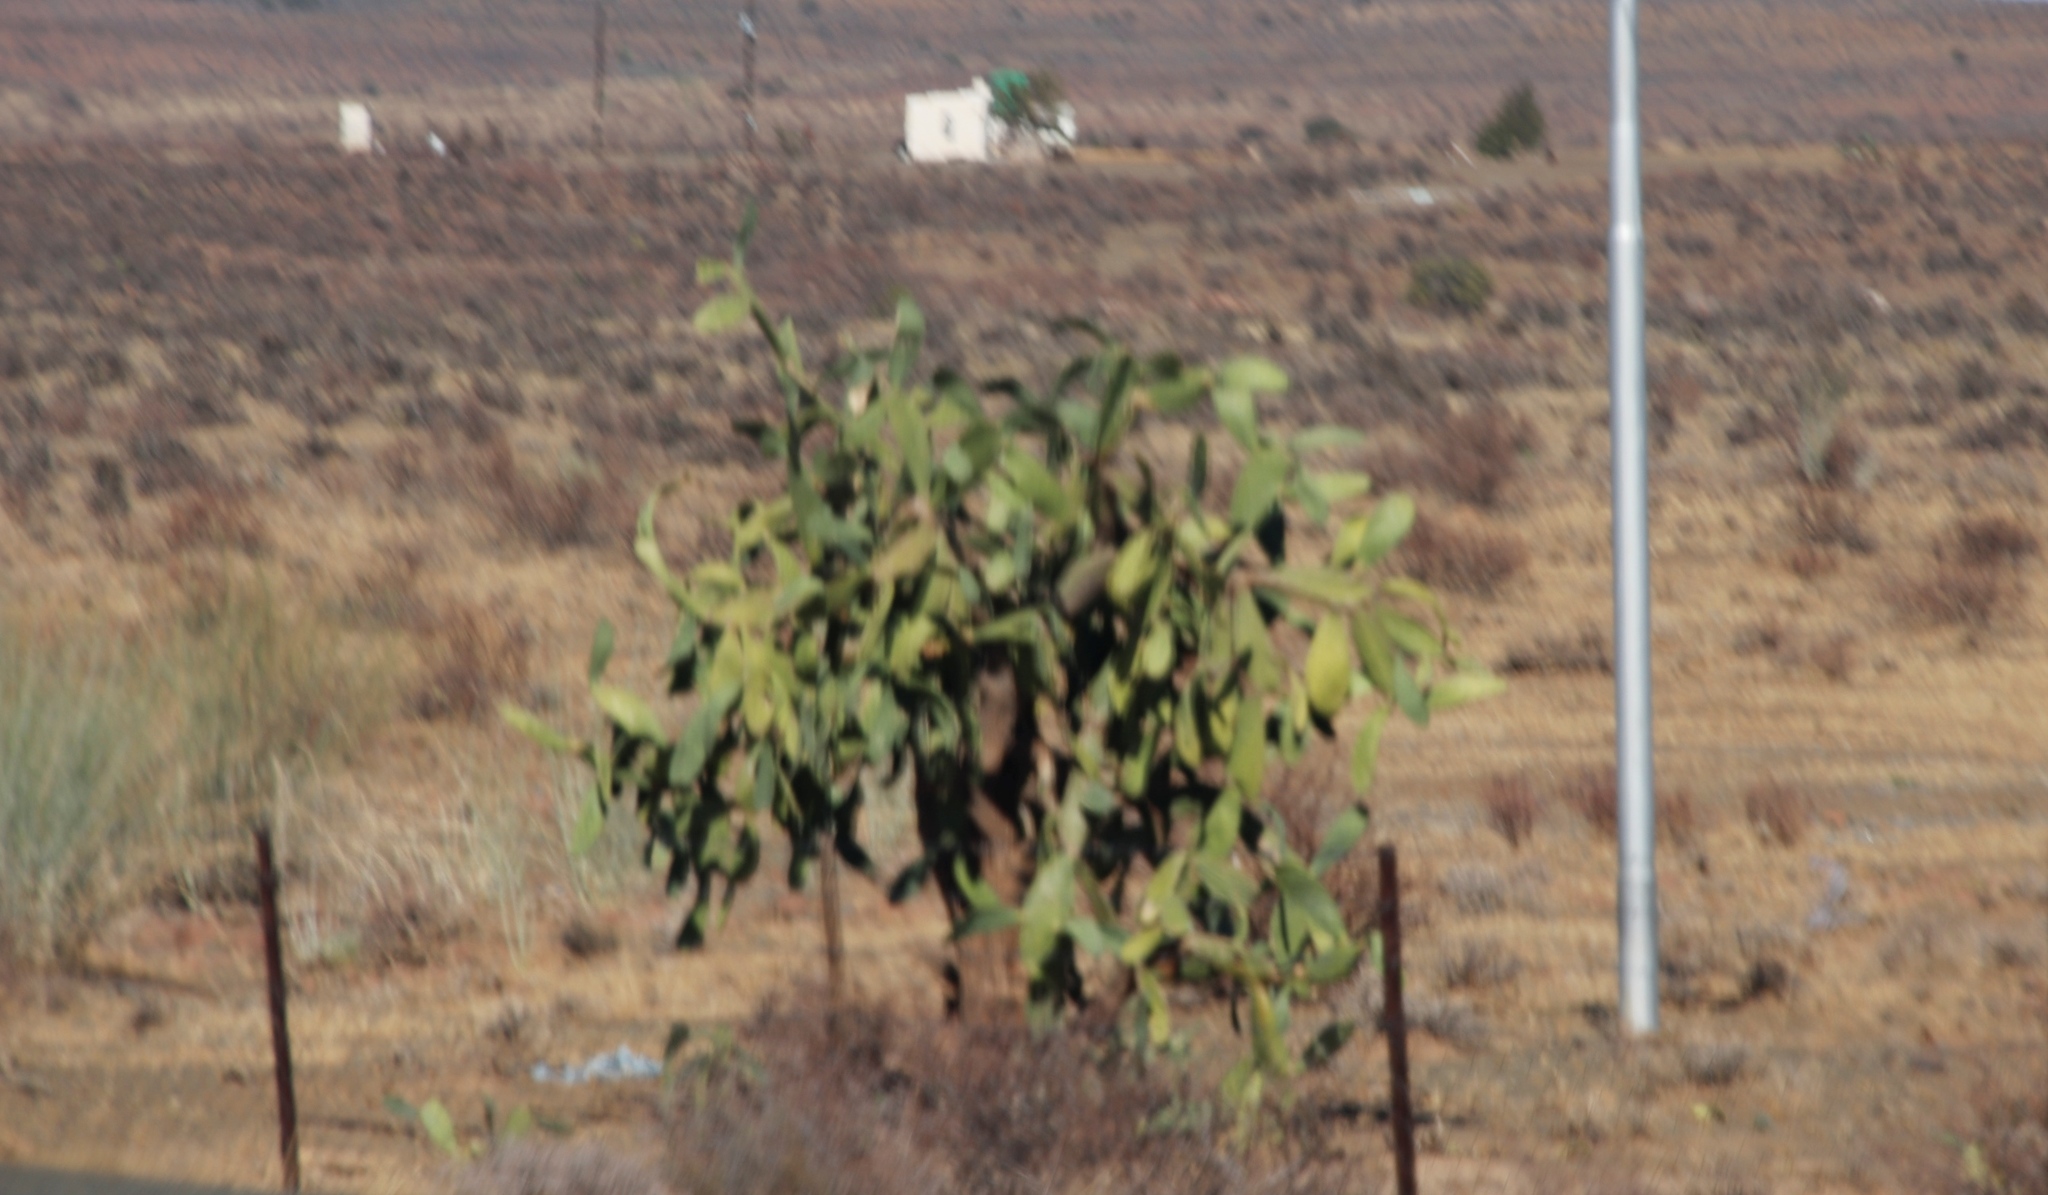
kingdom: Plantae
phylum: Tracheophyta
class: Magnoliopsida
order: Caryophyllales
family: Cactaceae
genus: Opuntia
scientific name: Opuntia ficus-indica
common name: Barbary fig
